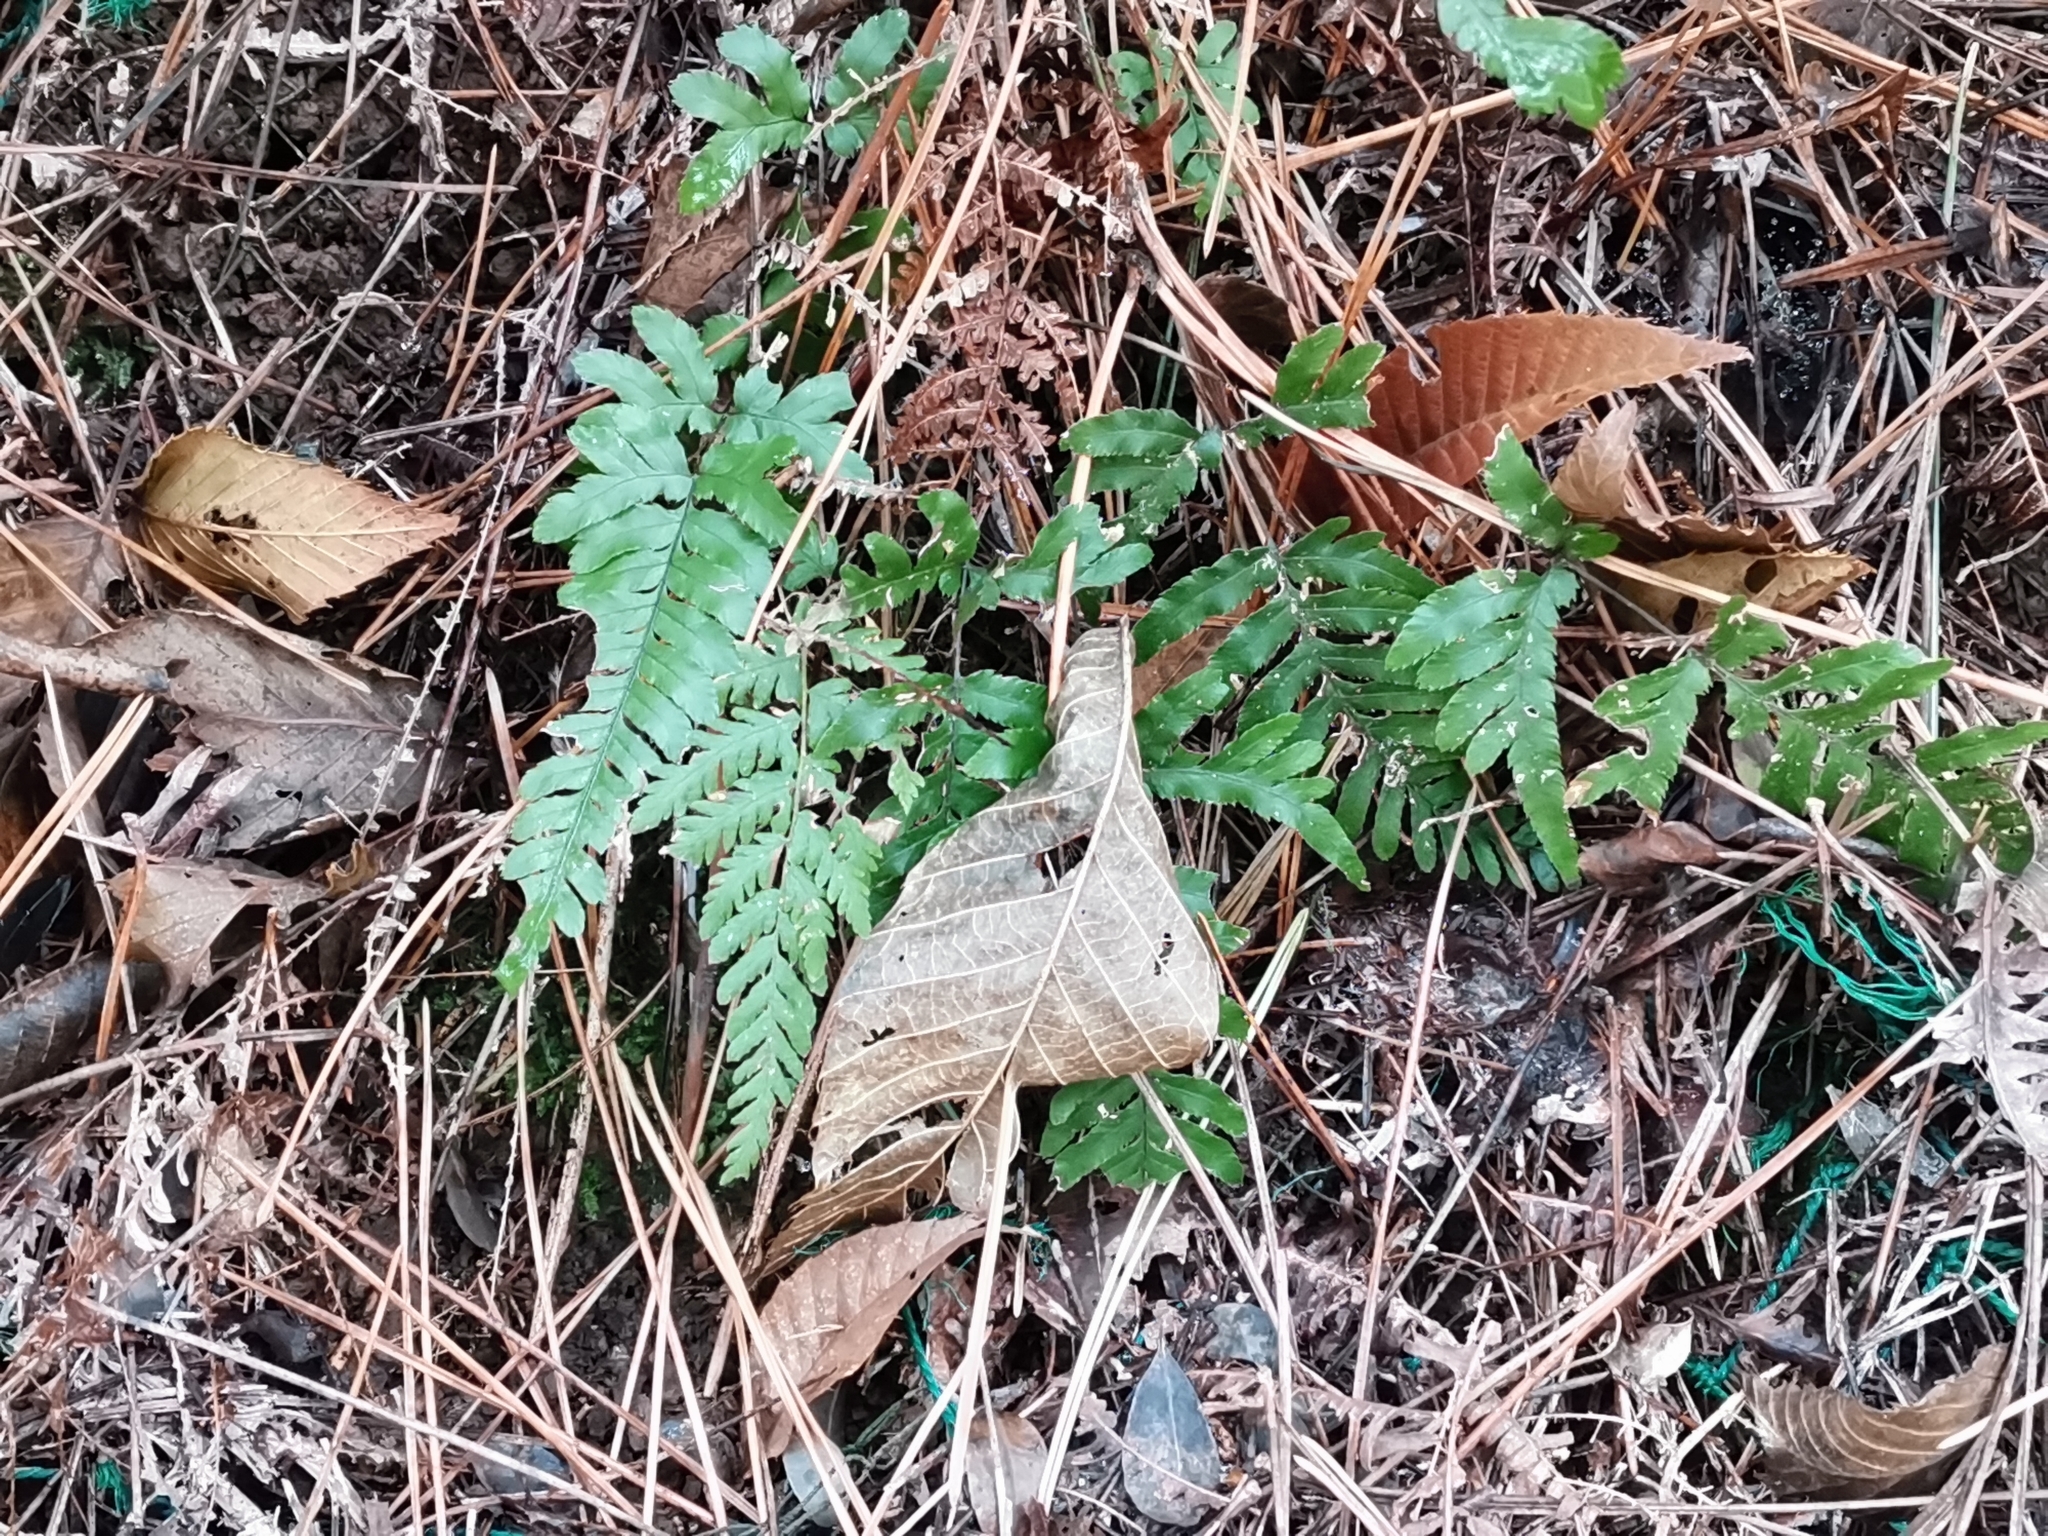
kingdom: Plantae
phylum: Tracheophyta
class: Polypodiopsida
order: Polypodiales
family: Pteridaceae
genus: Pteris
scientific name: Pteris semipinnata
